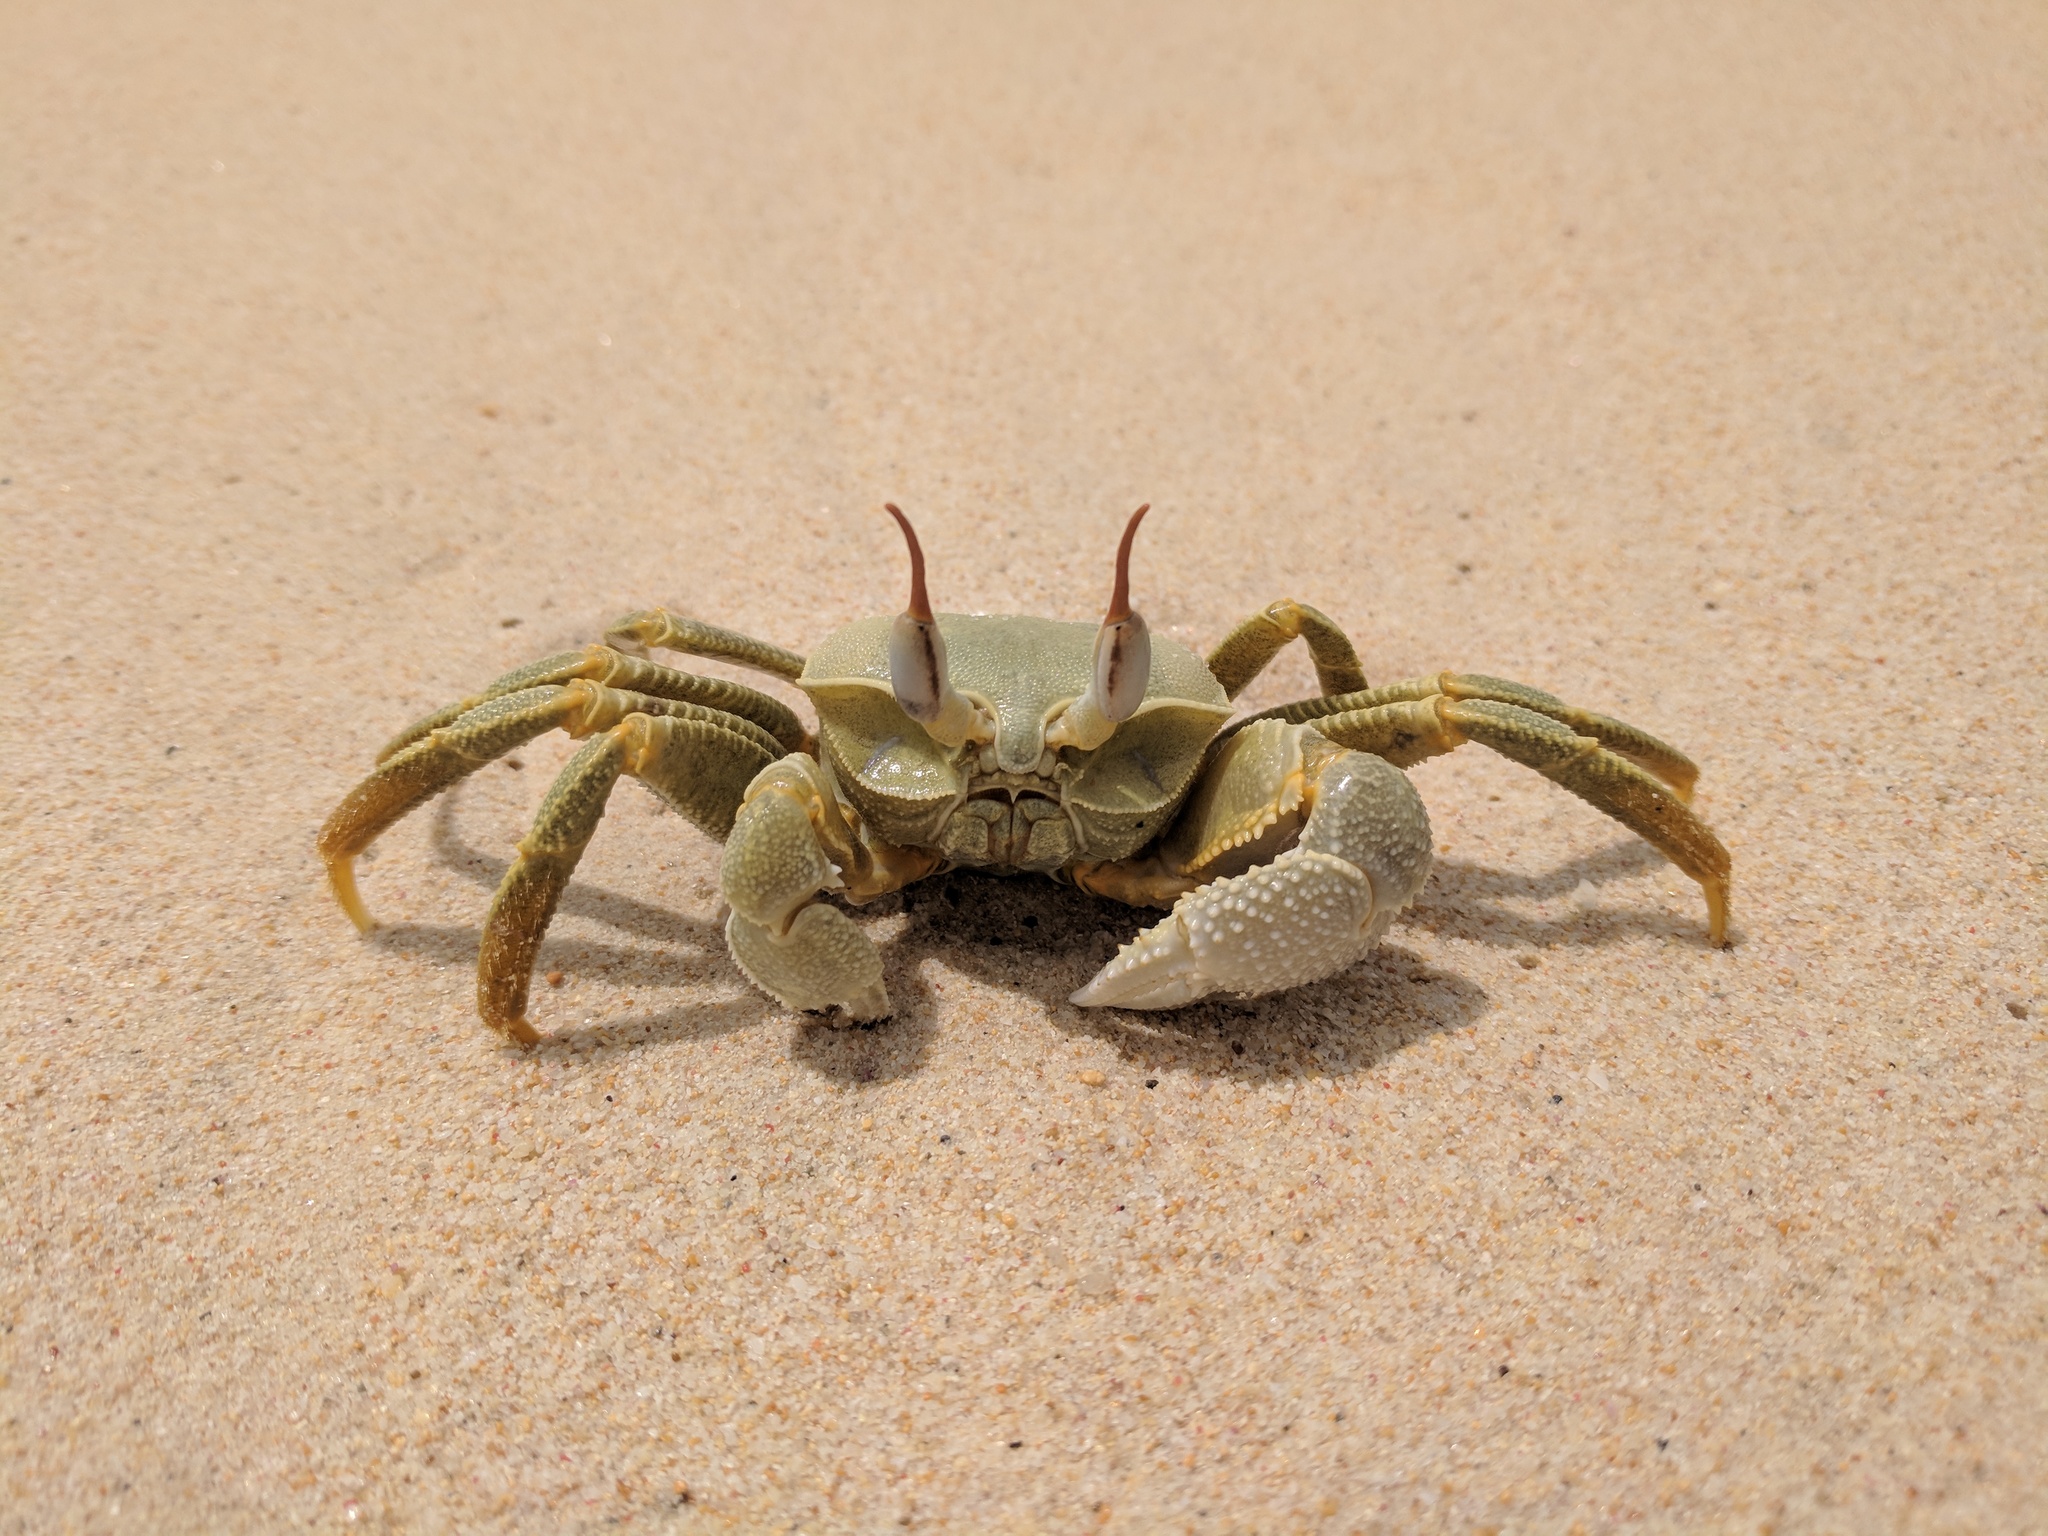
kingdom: Animalia
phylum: Arthropoda
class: Malacostraca
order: Decapoda
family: Ocypodidae
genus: Ocypode
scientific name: Ocypode ceratophthalmus
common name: Indo-pacific ghost crab
